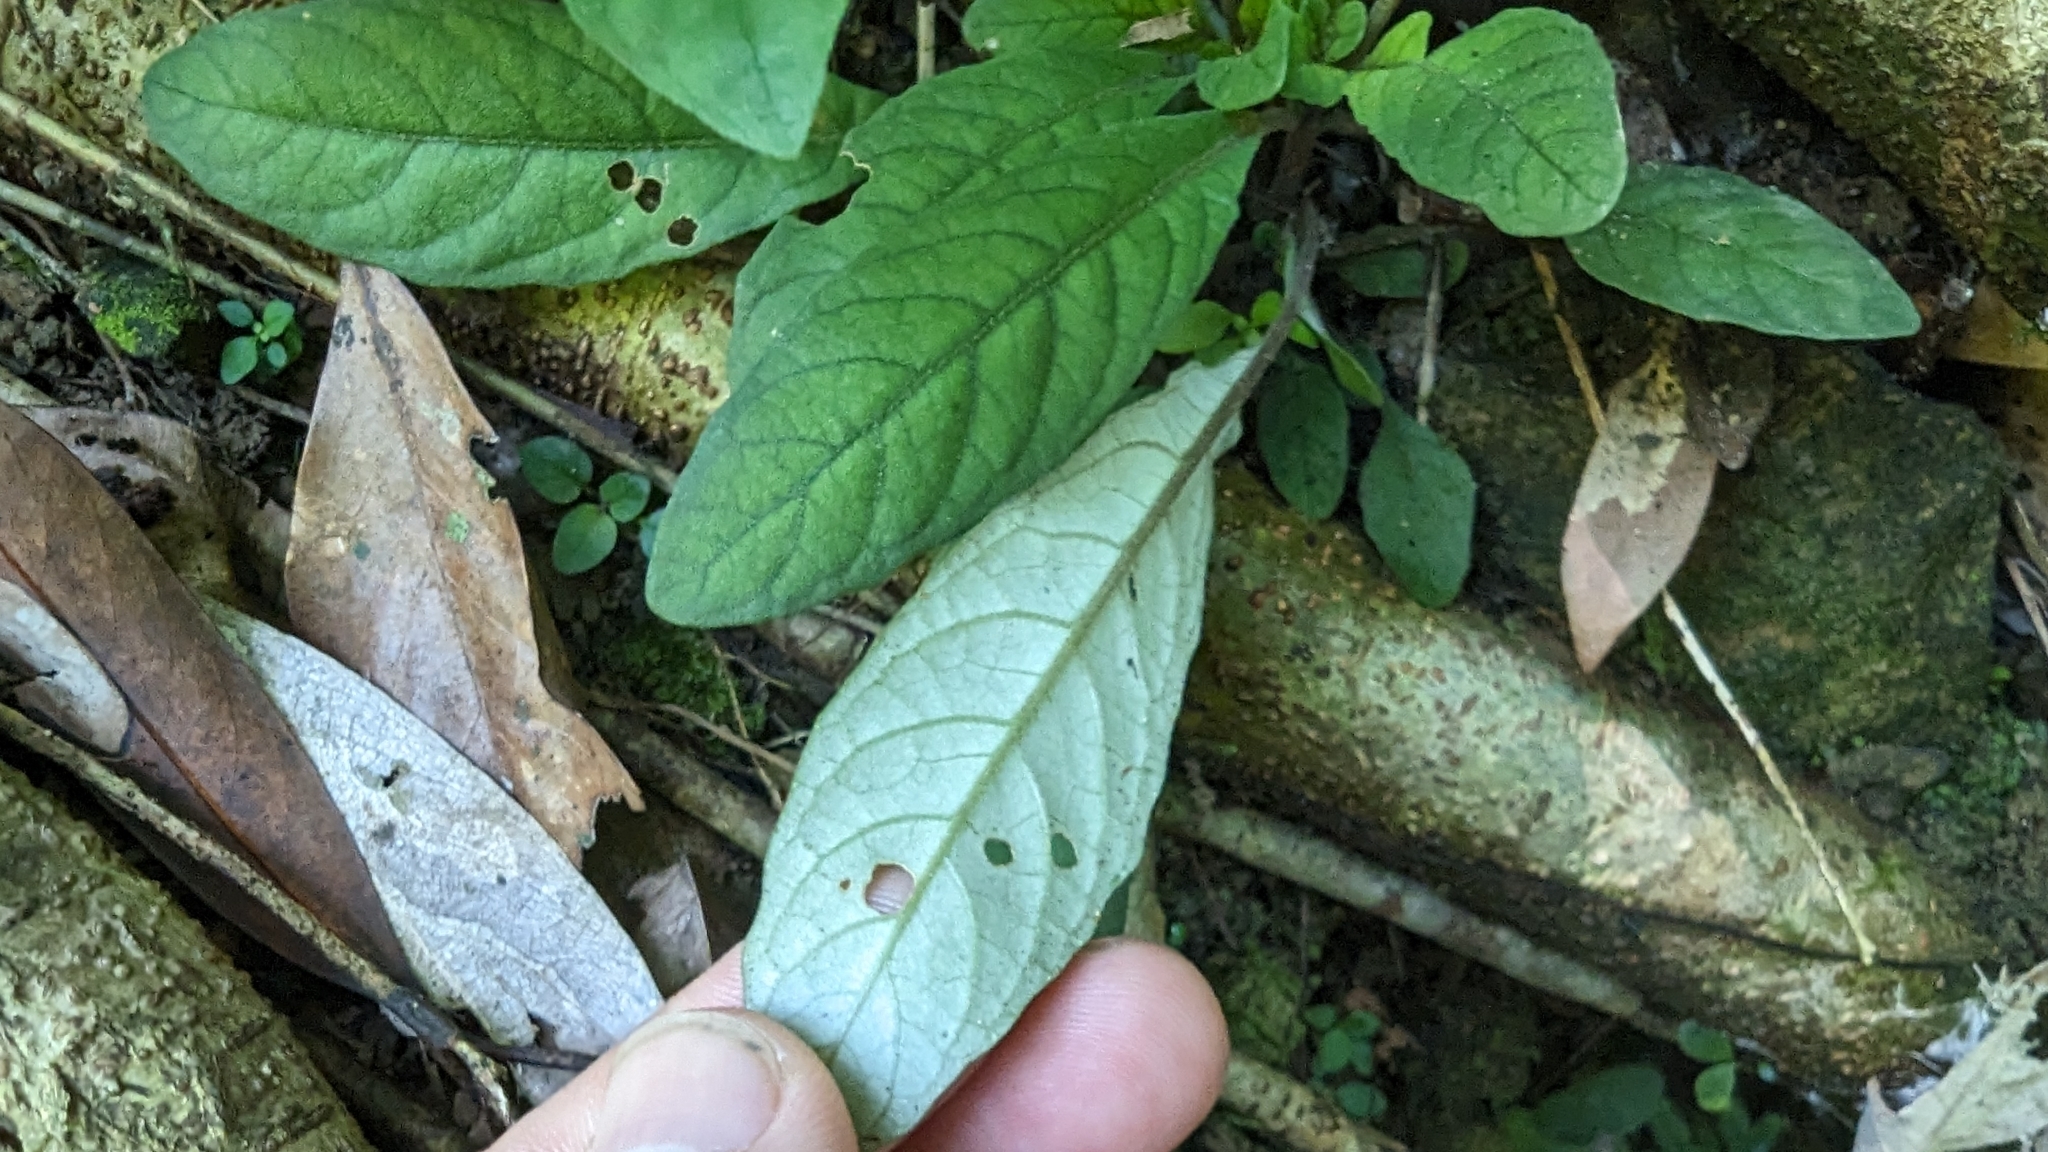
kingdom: Plantae
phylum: Tracheophyta
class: Magnoliopsida
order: Lamiales
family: Acanthaceae
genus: Staurogyne
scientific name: Staurogyne concinnula
